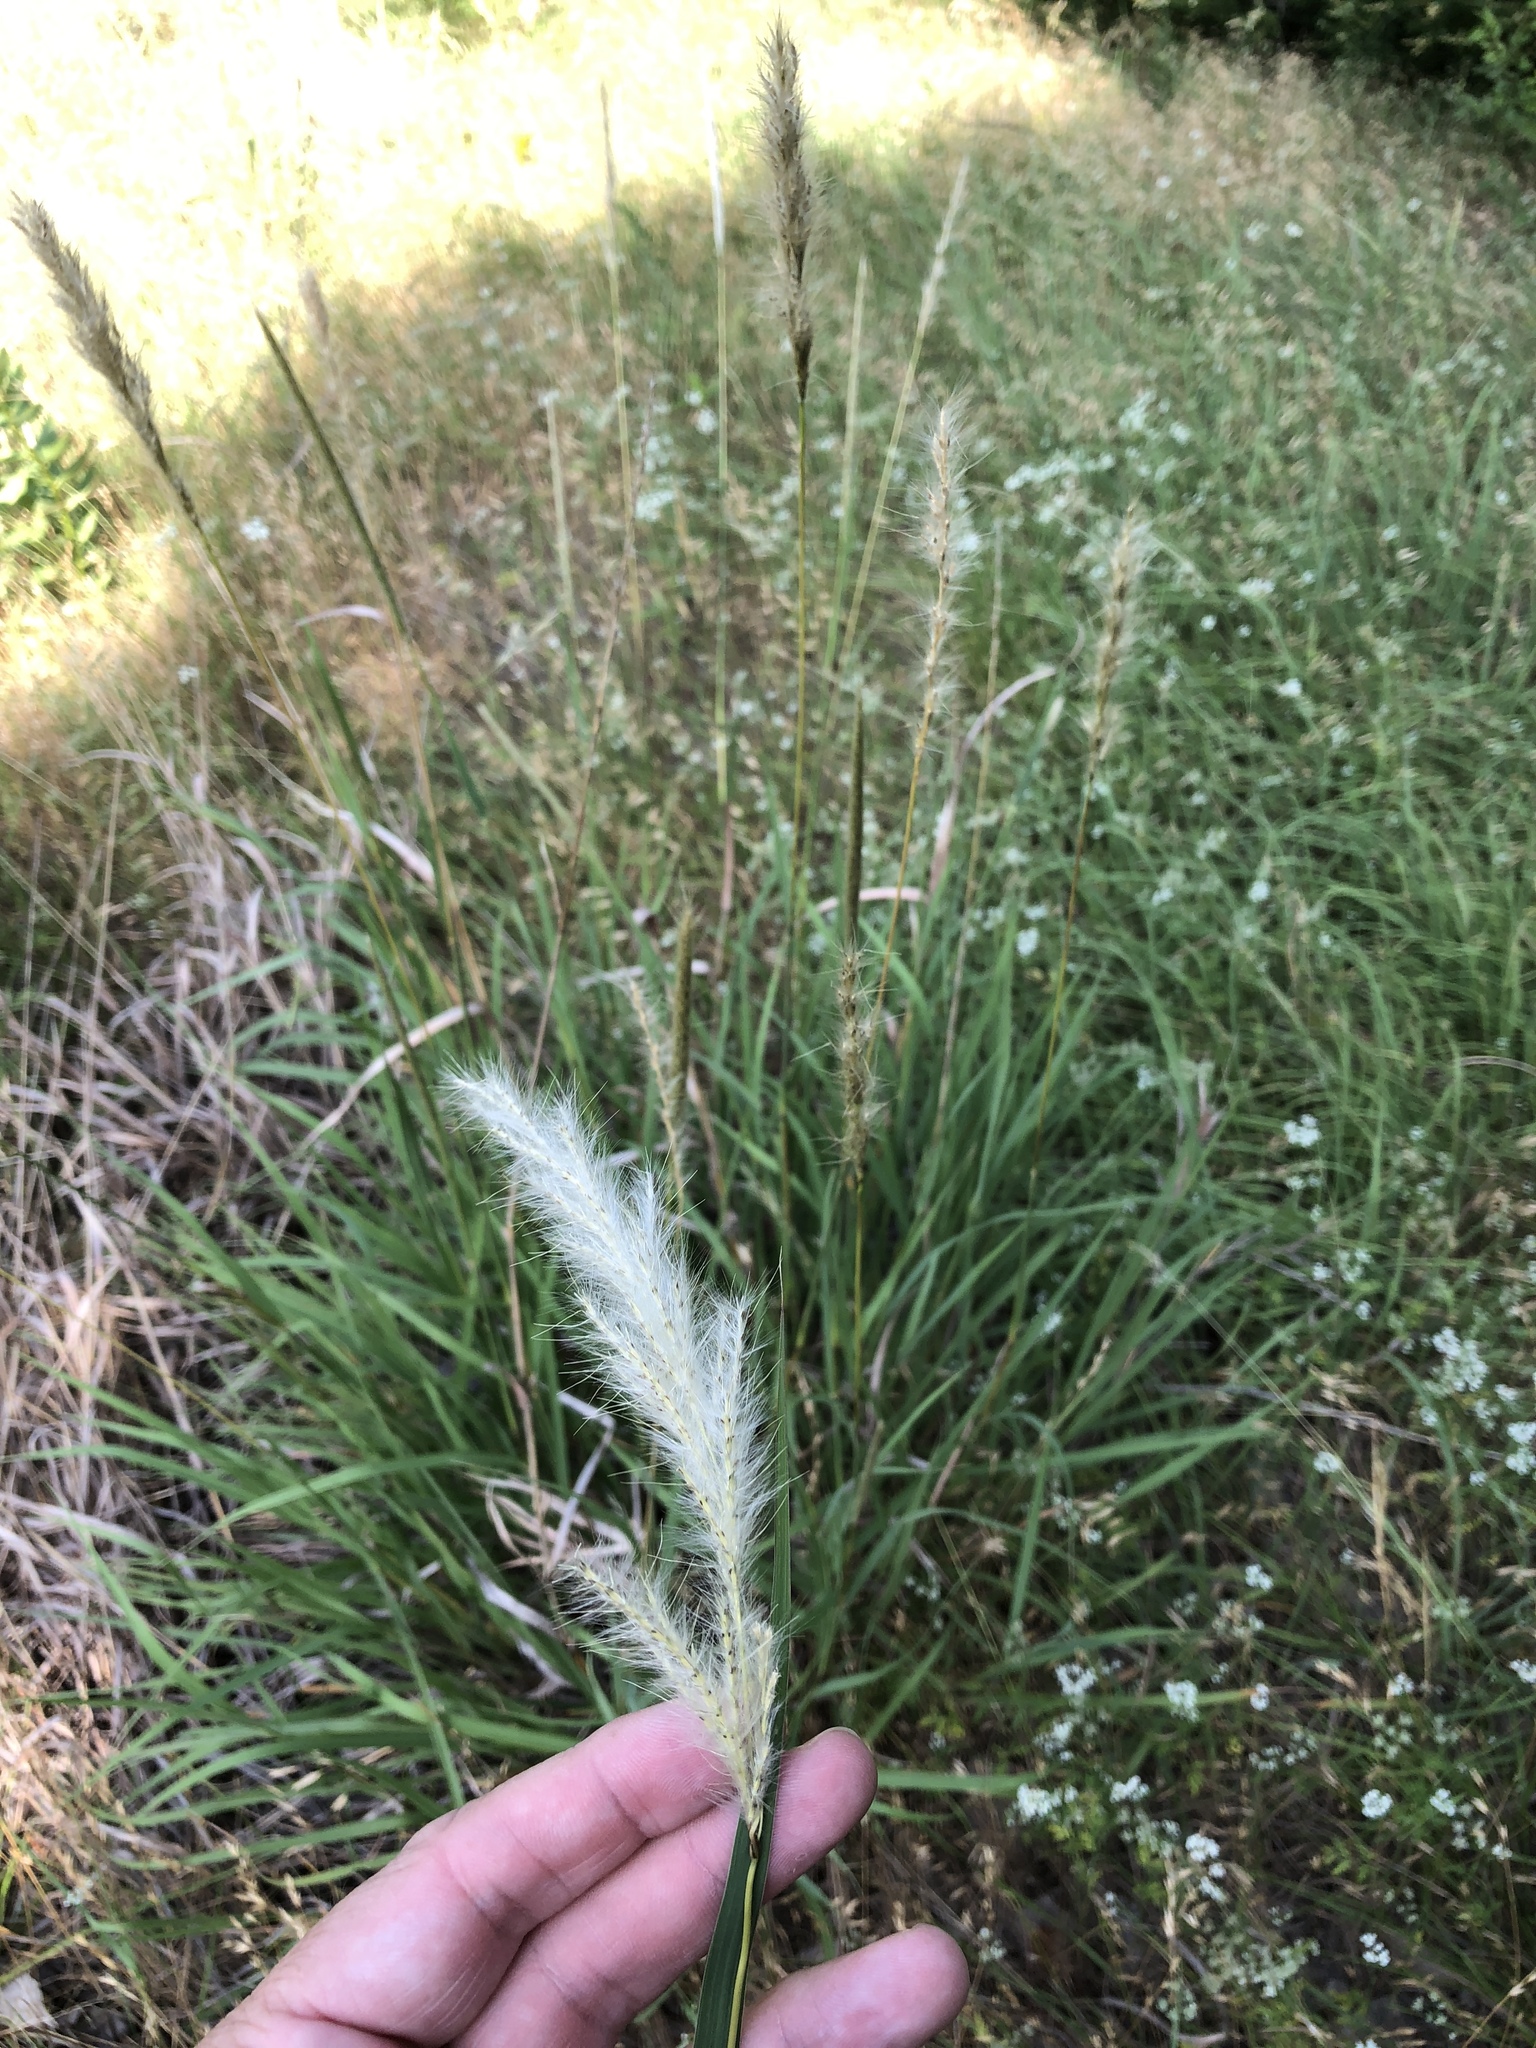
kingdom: Plantae
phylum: Tracheophyta
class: Liliopsida
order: Poales
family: Poaceae
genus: Bothriochloa
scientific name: Bothriochloa torreyana
